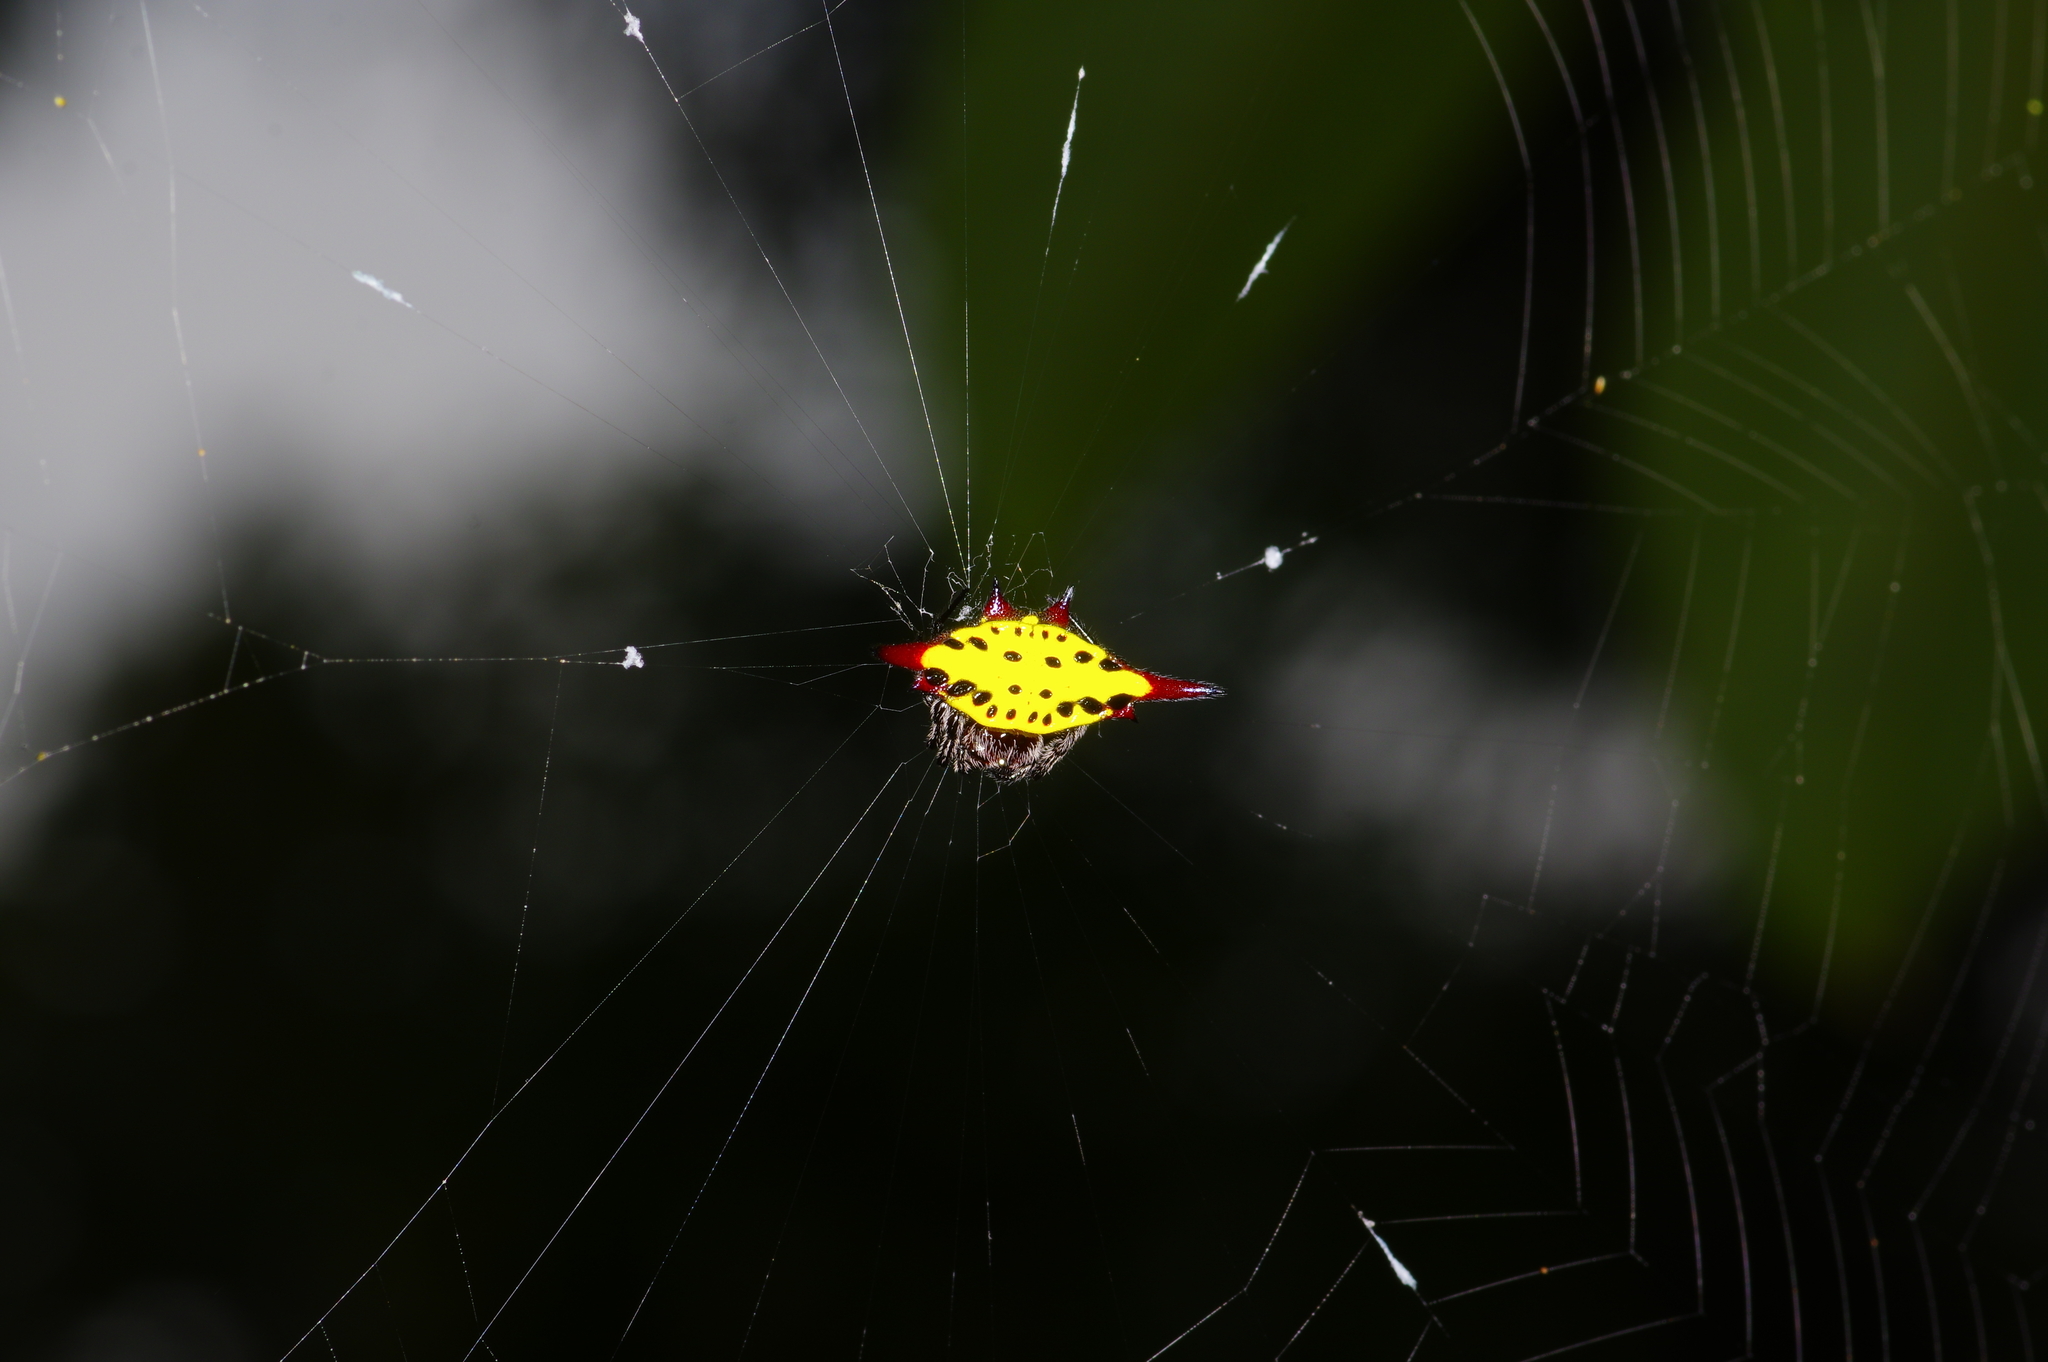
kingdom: Animalia
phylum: Arthropoda
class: Arachnida
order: Araneae
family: Araneidae
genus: Gasteracantha
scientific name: Gasteracantha sauteri
